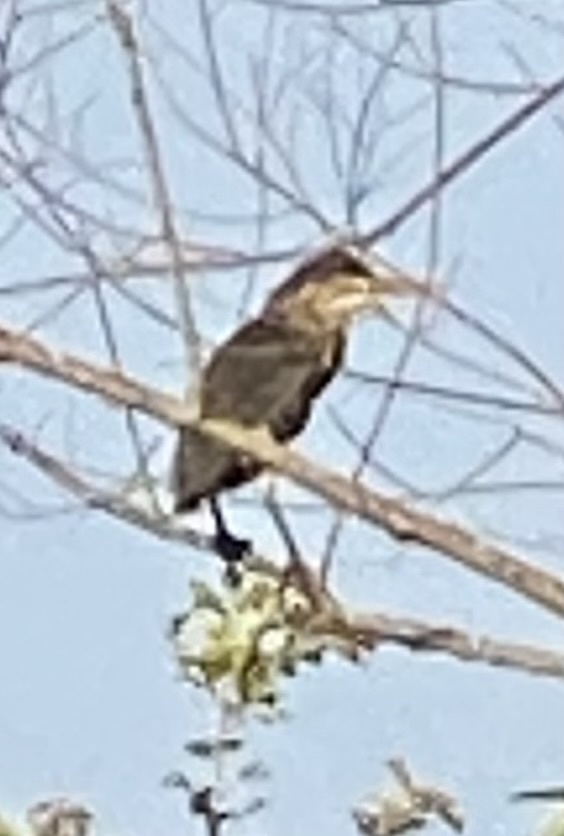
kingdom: Animalia
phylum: Chordata
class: Aves
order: Pelecaniformes
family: Ardeidae
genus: Butorides
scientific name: Butorides virescens
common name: Green heron
